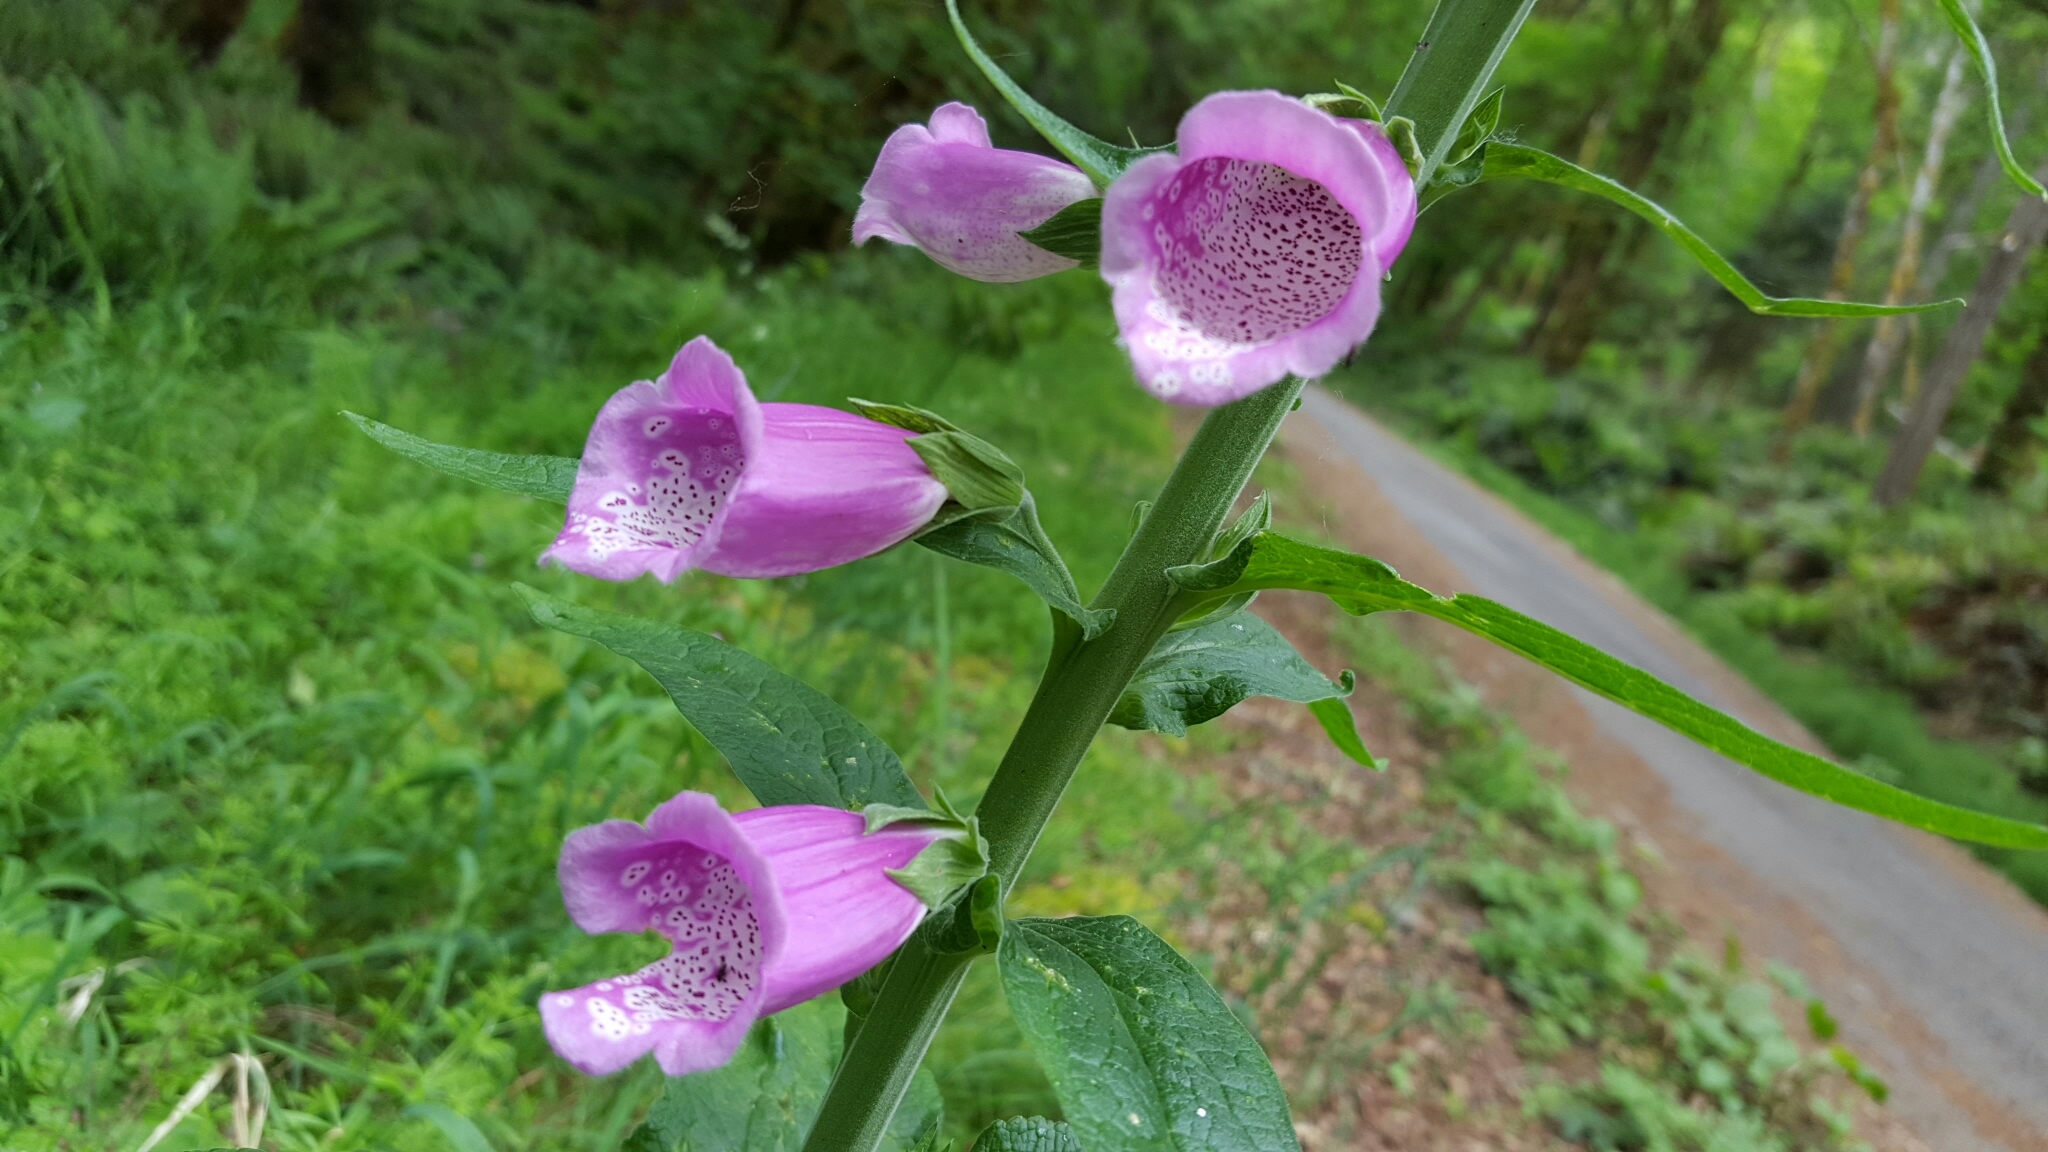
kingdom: Plantae
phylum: Tracheophyta
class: Magnoliopsida
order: Lamiales
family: Plantaginaceae
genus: Digitalis
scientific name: Digitalis purpurea
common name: Foxglove
